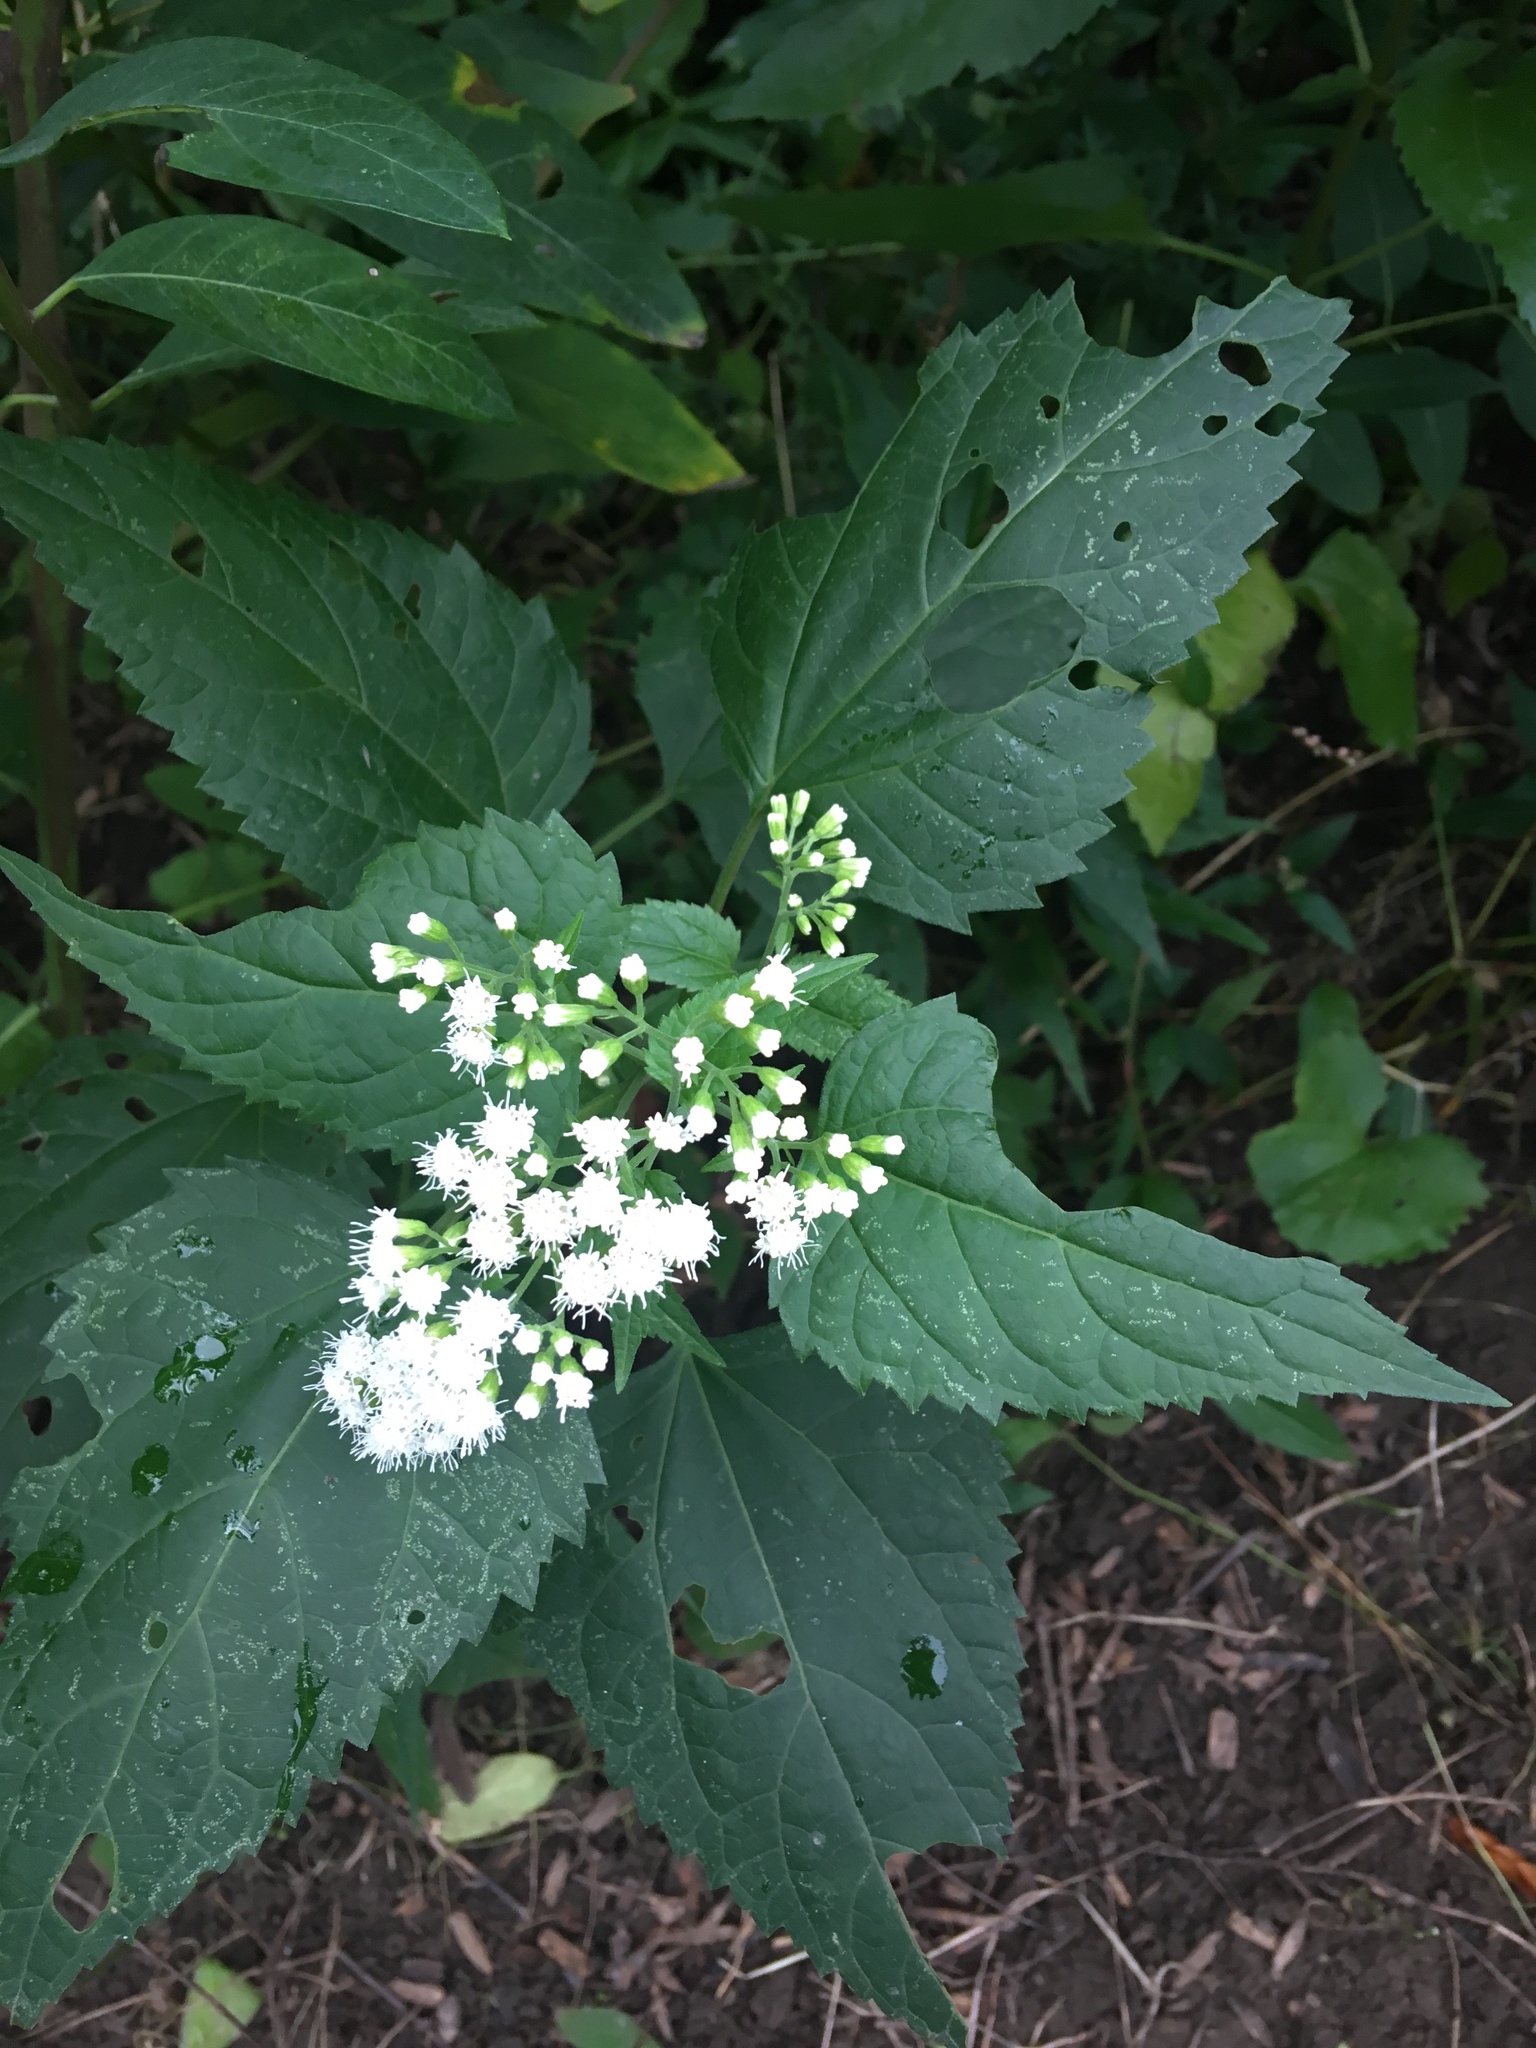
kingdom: Plantae
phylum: Tracheophyta
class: Magnoliopsida
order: Asterales
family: Asteraceae
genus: Ageratina
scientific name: Ageratina altissima
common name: White snakeroot
